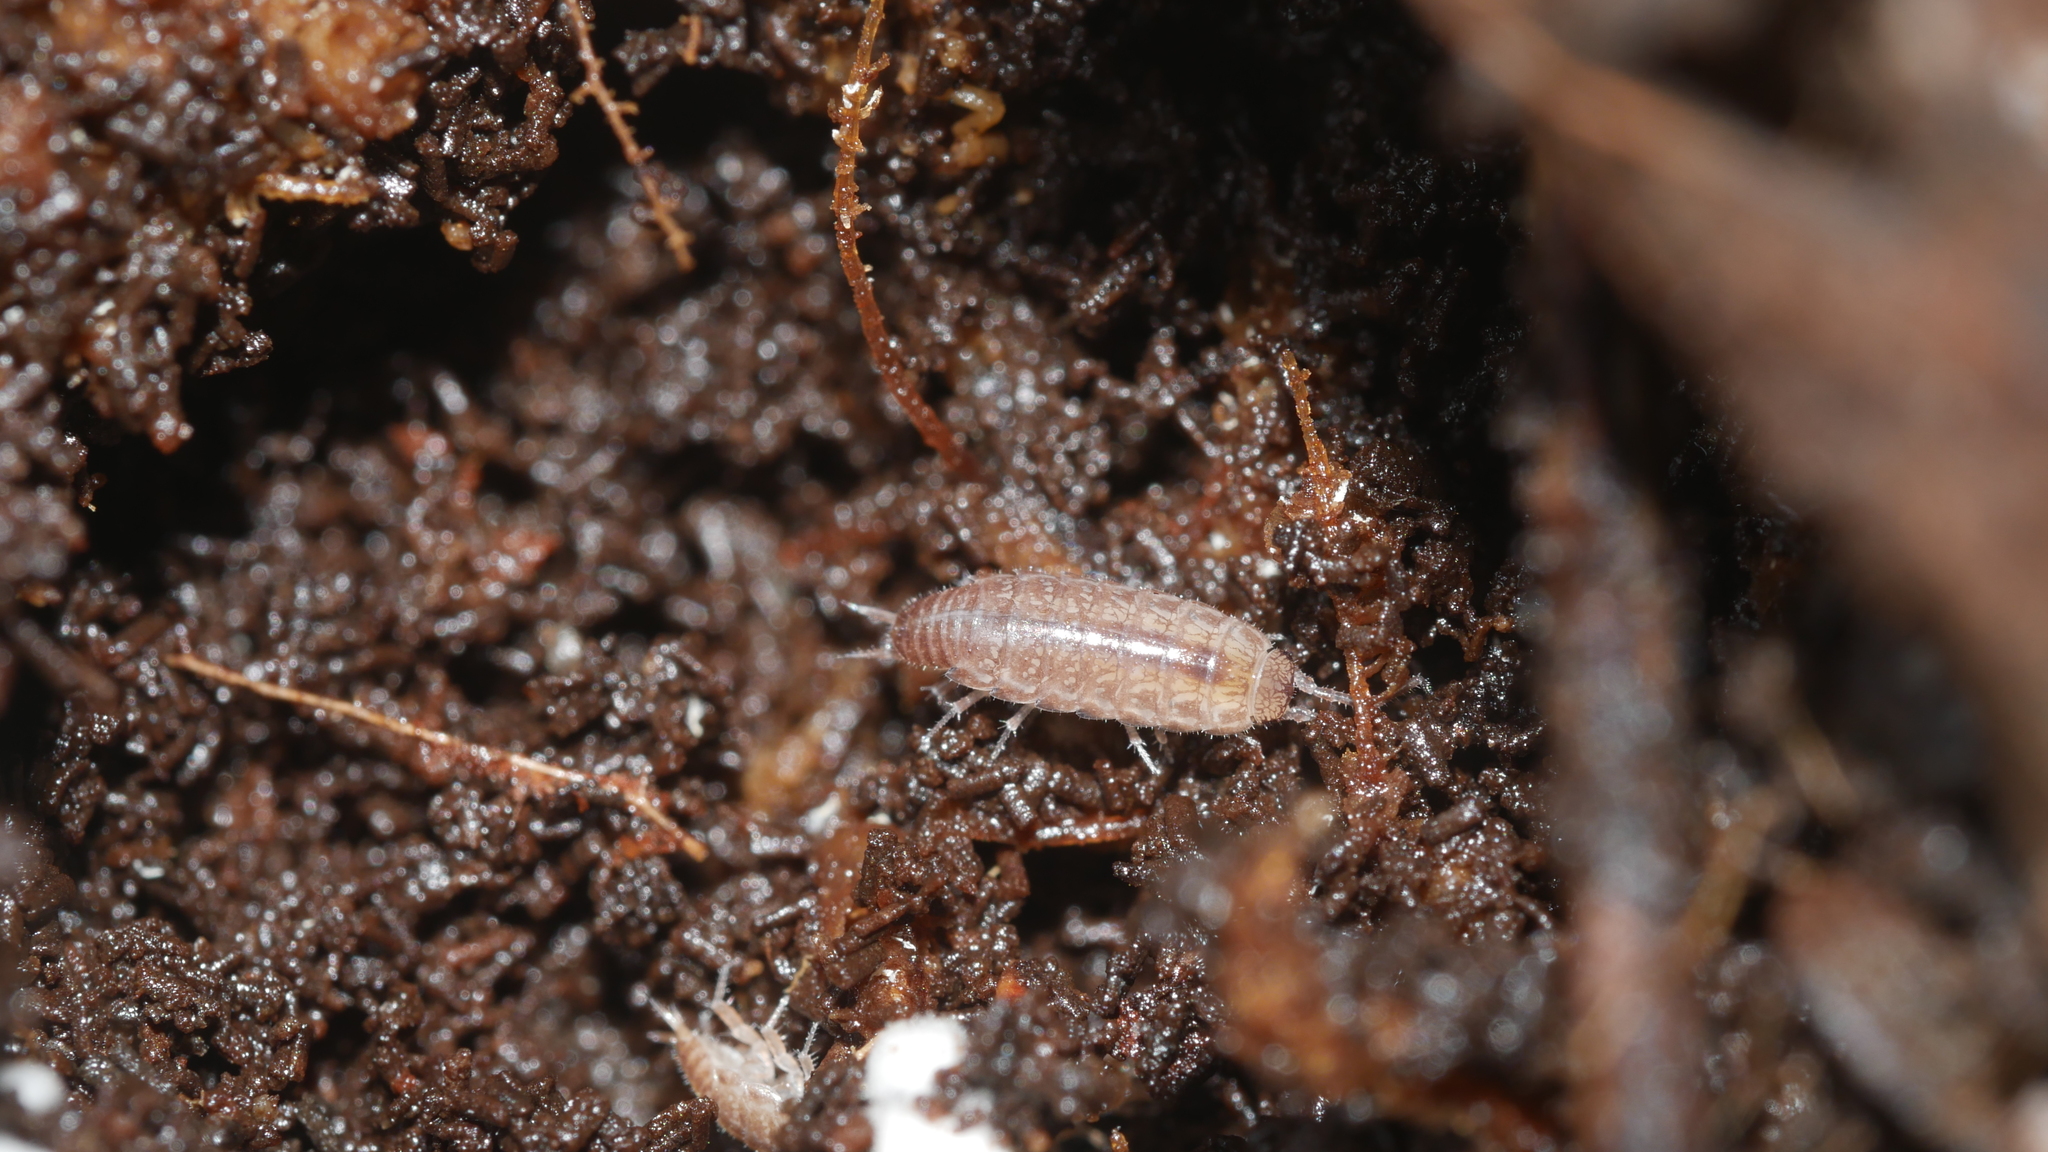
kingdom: Animalia
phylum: Arthropoda
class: Malacostraca
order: Isopoda
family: Philosciidae
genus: Chaetophiloscia
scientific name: Chaetophiloscia sicula
